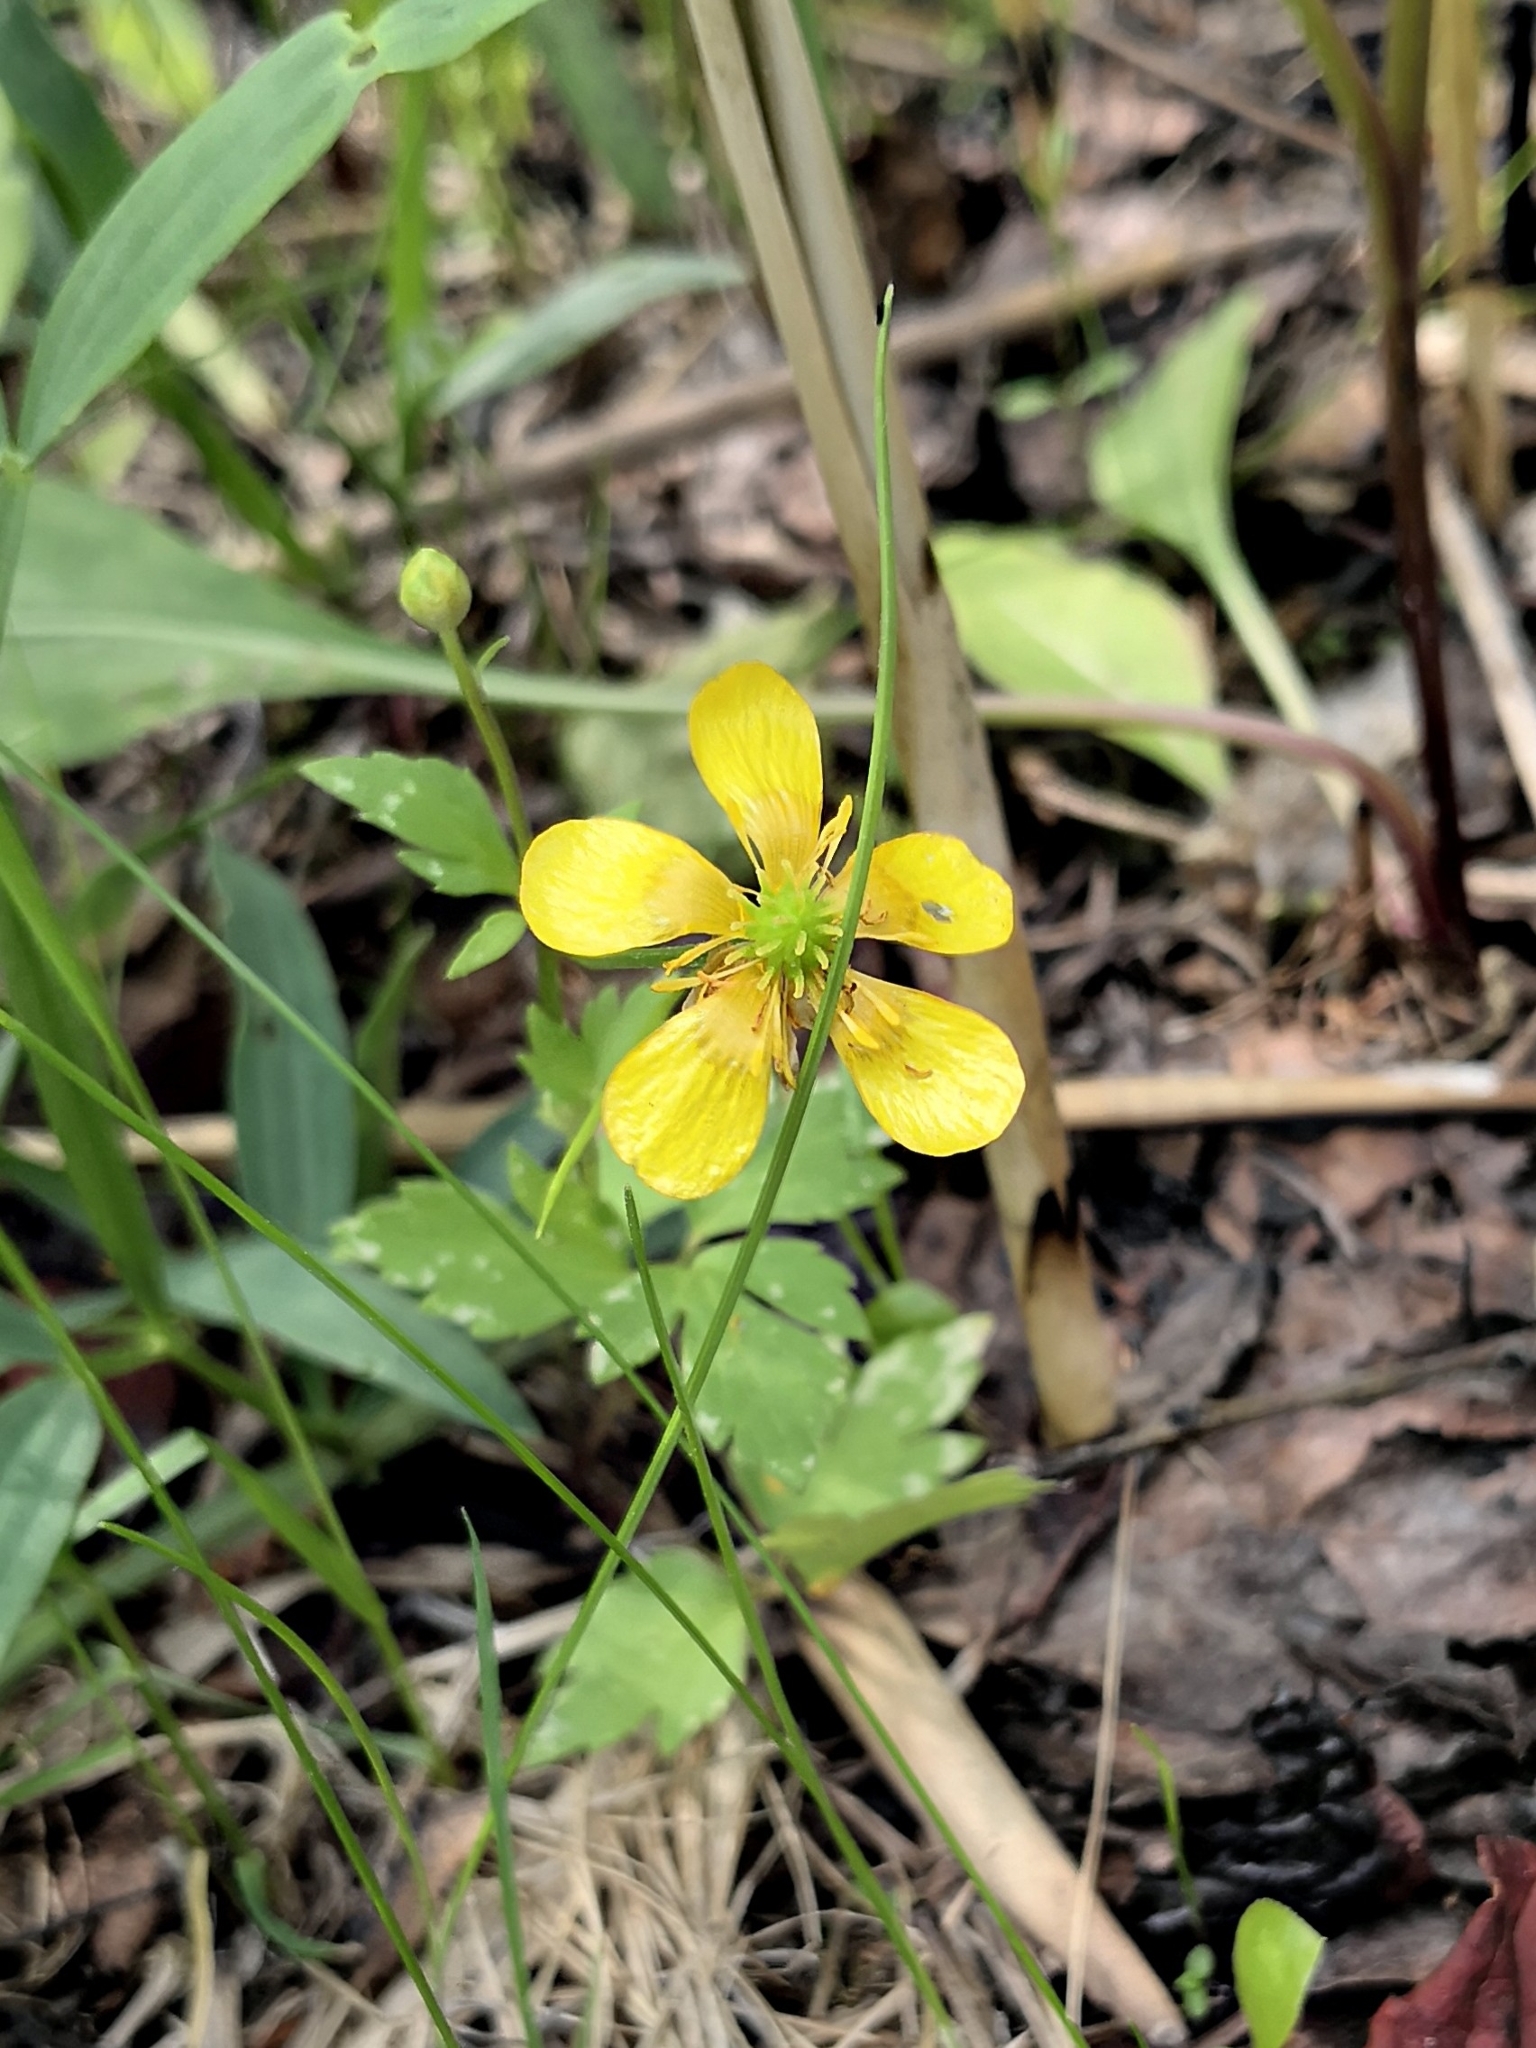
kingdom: Plantae
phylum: Tracheophyta
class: Magnoliopsida
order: Ranunculales
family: Ranunculaceae
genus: Ranunculus
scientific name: Ranunculus repens
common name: Creeping buttercup
